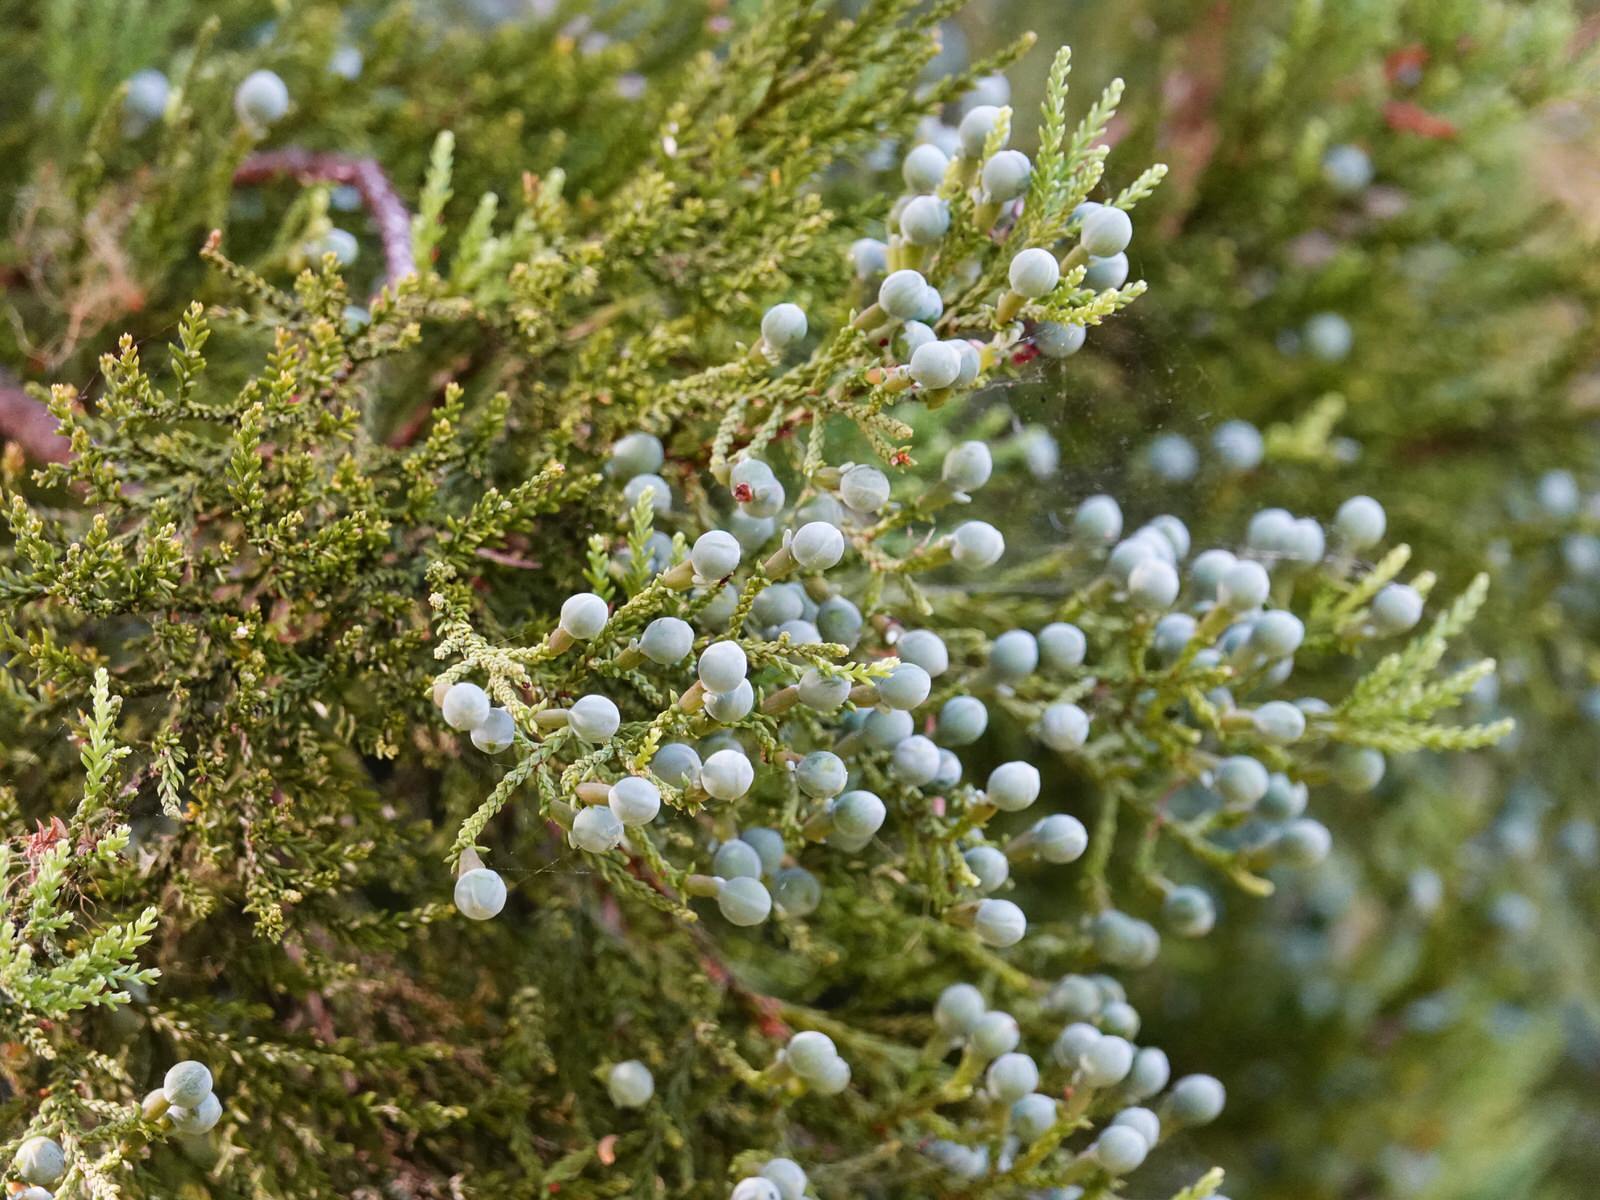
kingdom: Plantae
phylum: Tracheophyta
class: Pinopsida
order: Pinales
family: Podocarpaceae
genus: Dacrycarpus
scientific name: Dacrycarpus dacrydioides
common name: White pine
